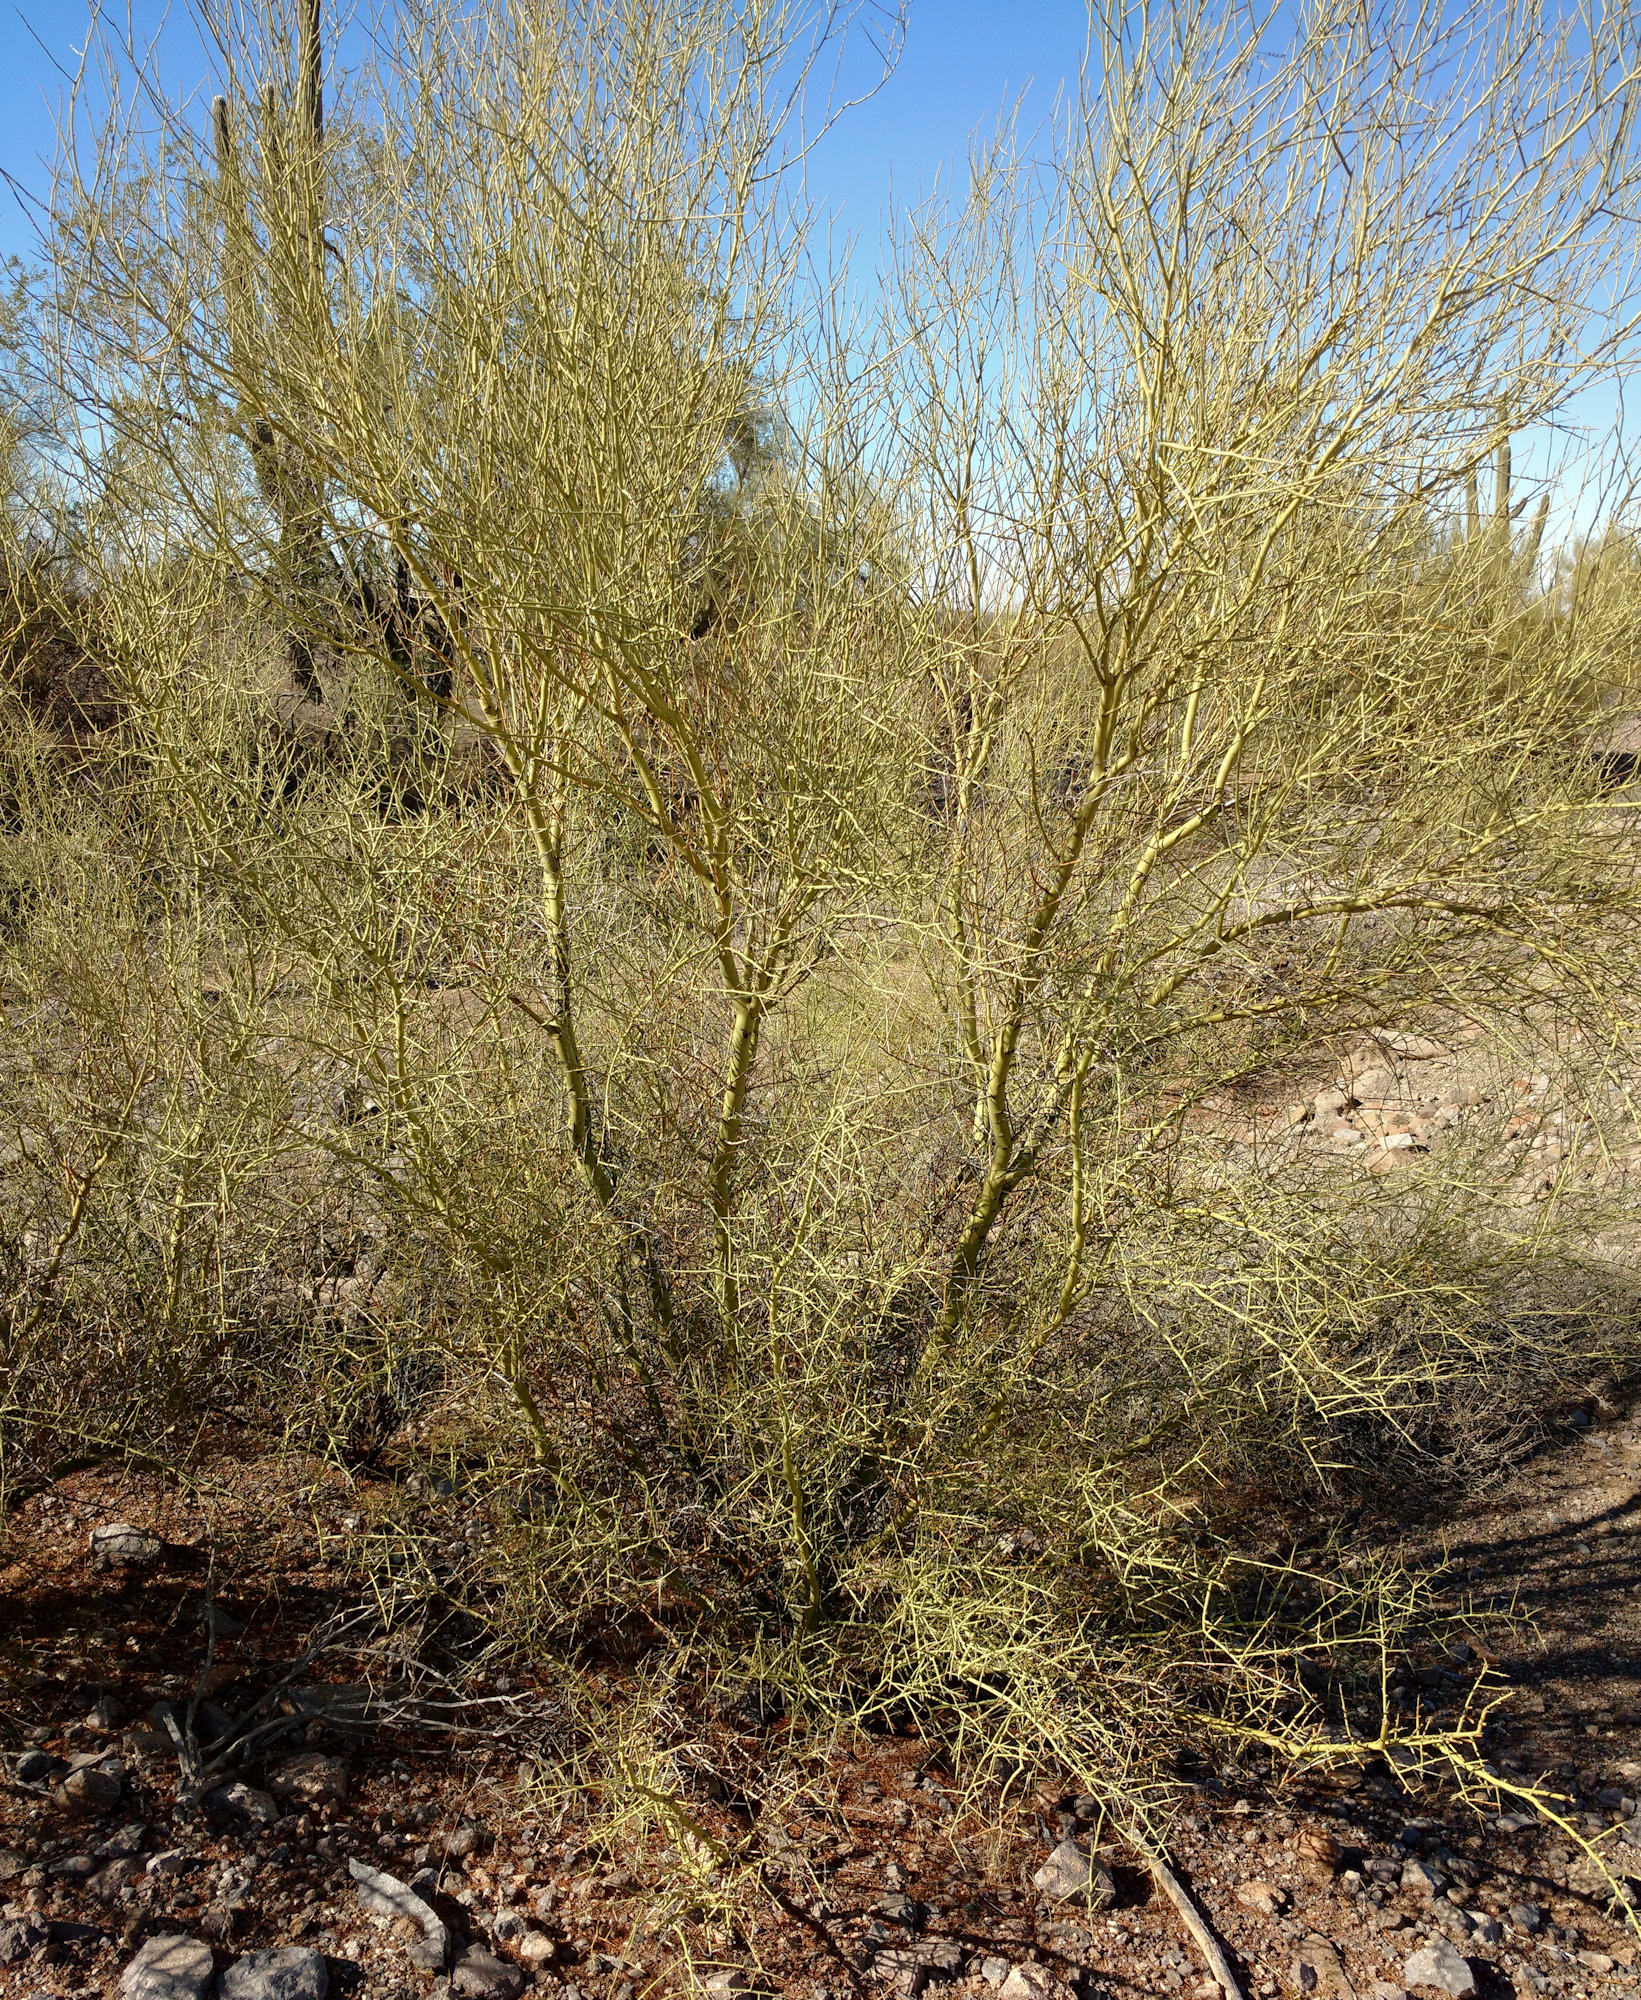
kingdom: Plantae
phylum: Tracheophyta
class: Magnoliopsida
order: Fabales
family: Fabaceae
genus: Parkinsonia
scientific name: Parkinsonia microphylla
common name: Yellow paloverde
